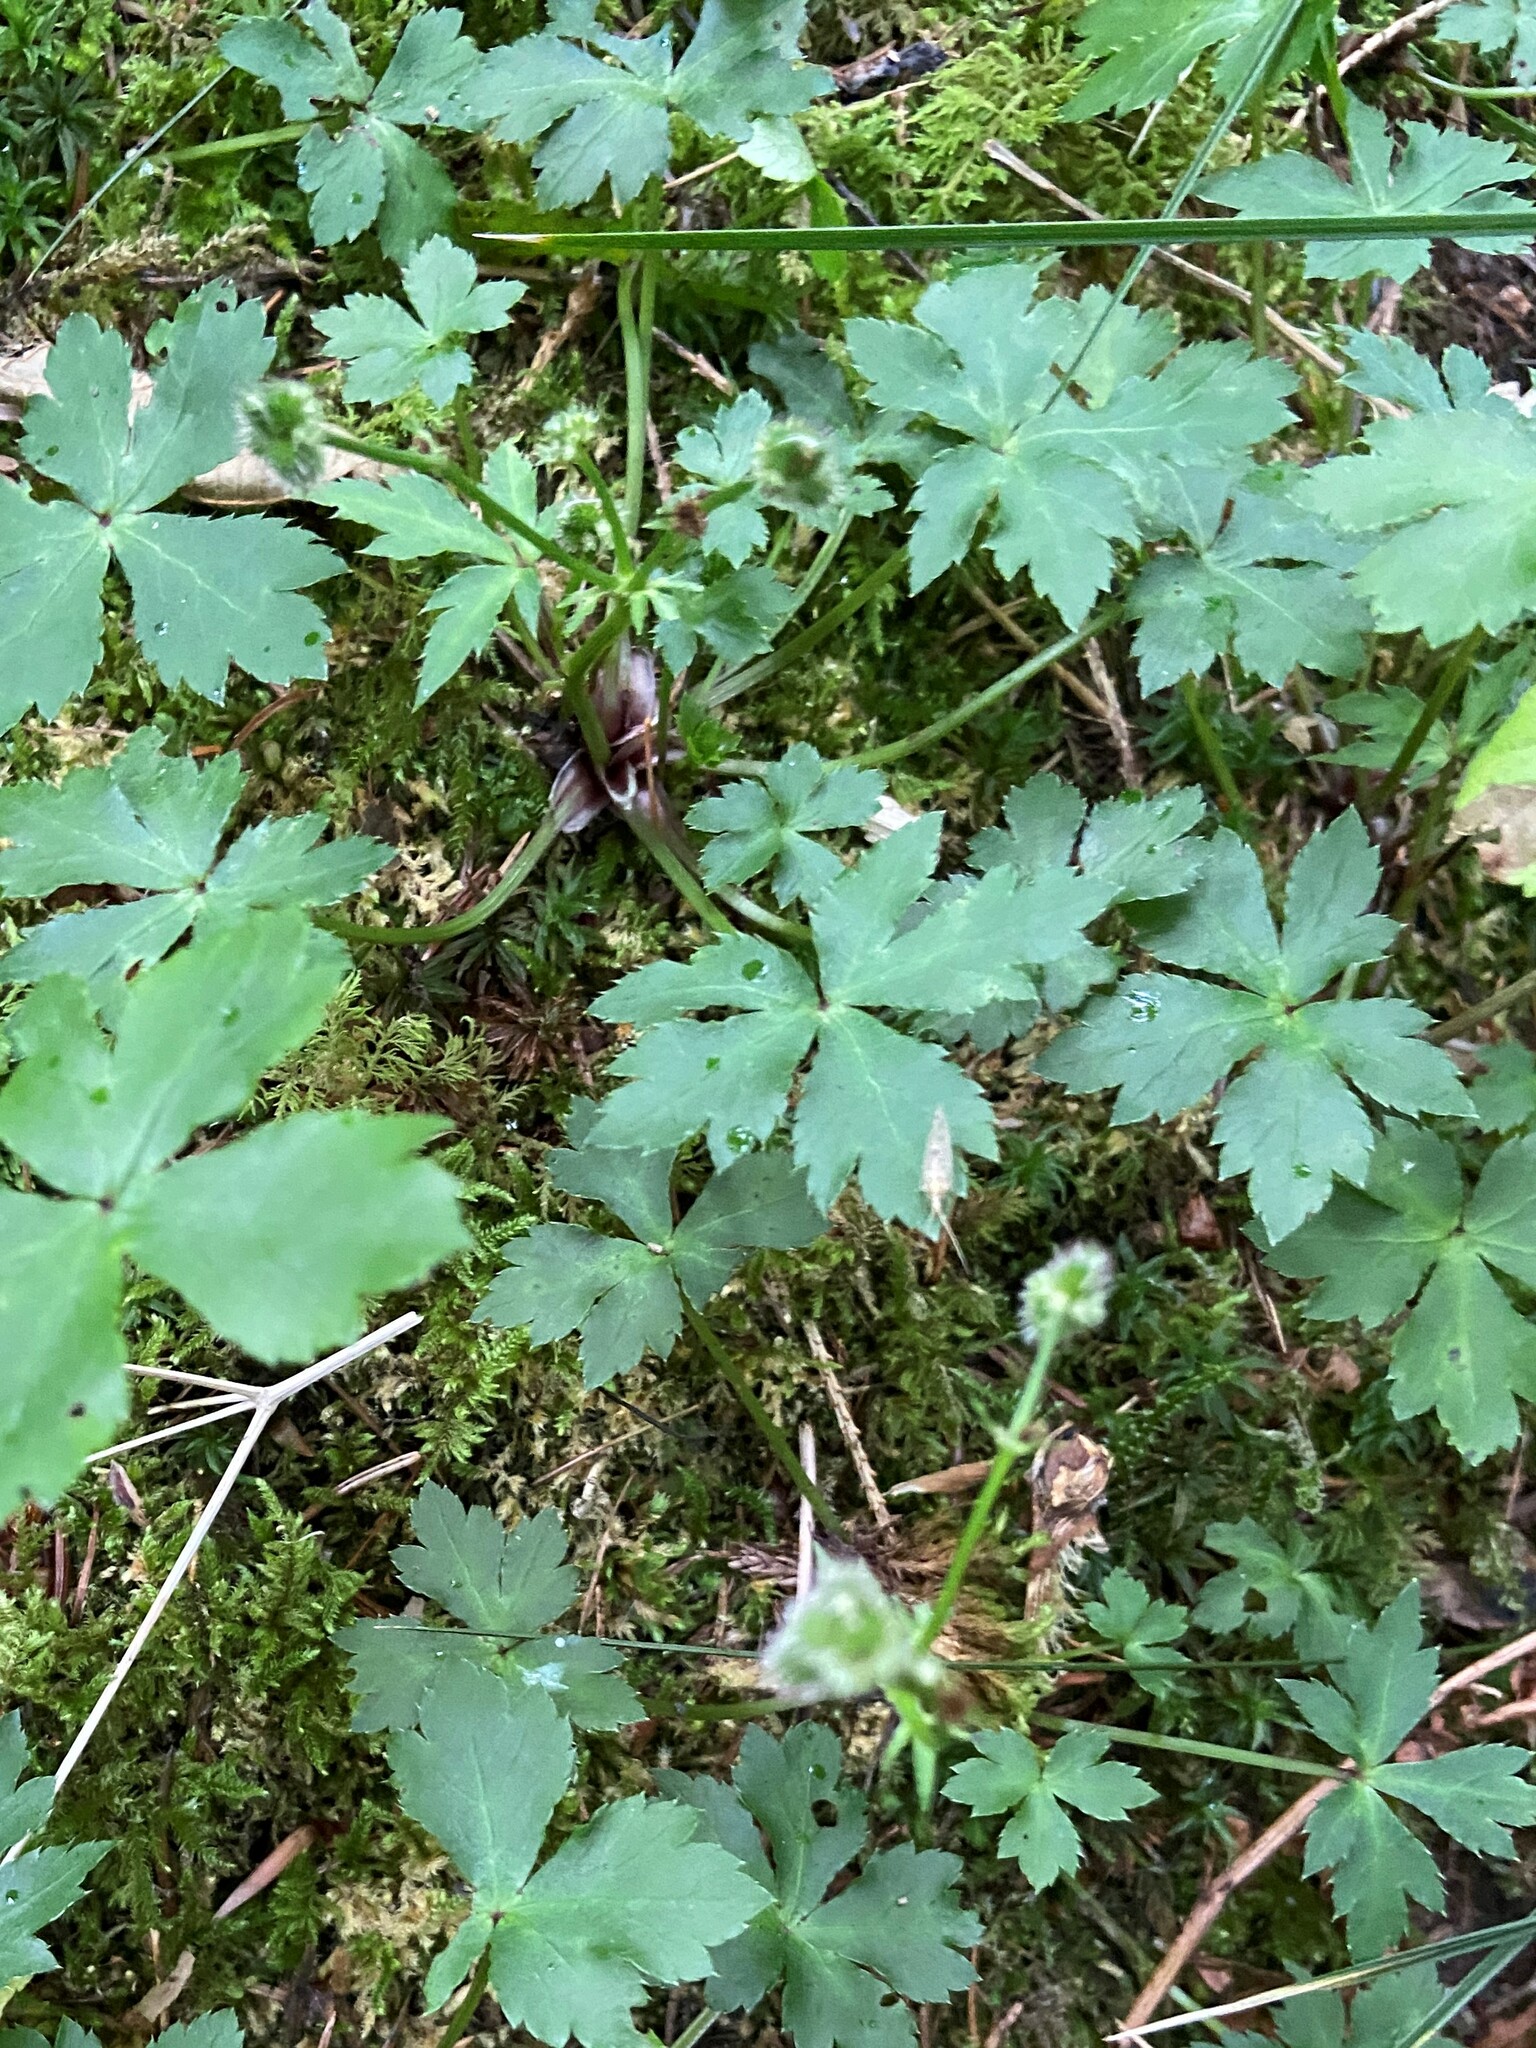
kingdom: Plantae
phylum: Tracheophyta
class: Magnoliopsida
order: Apiales
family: Apiaceae
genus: Sanicula
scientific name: Sanicula europaea
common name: Sanicle
